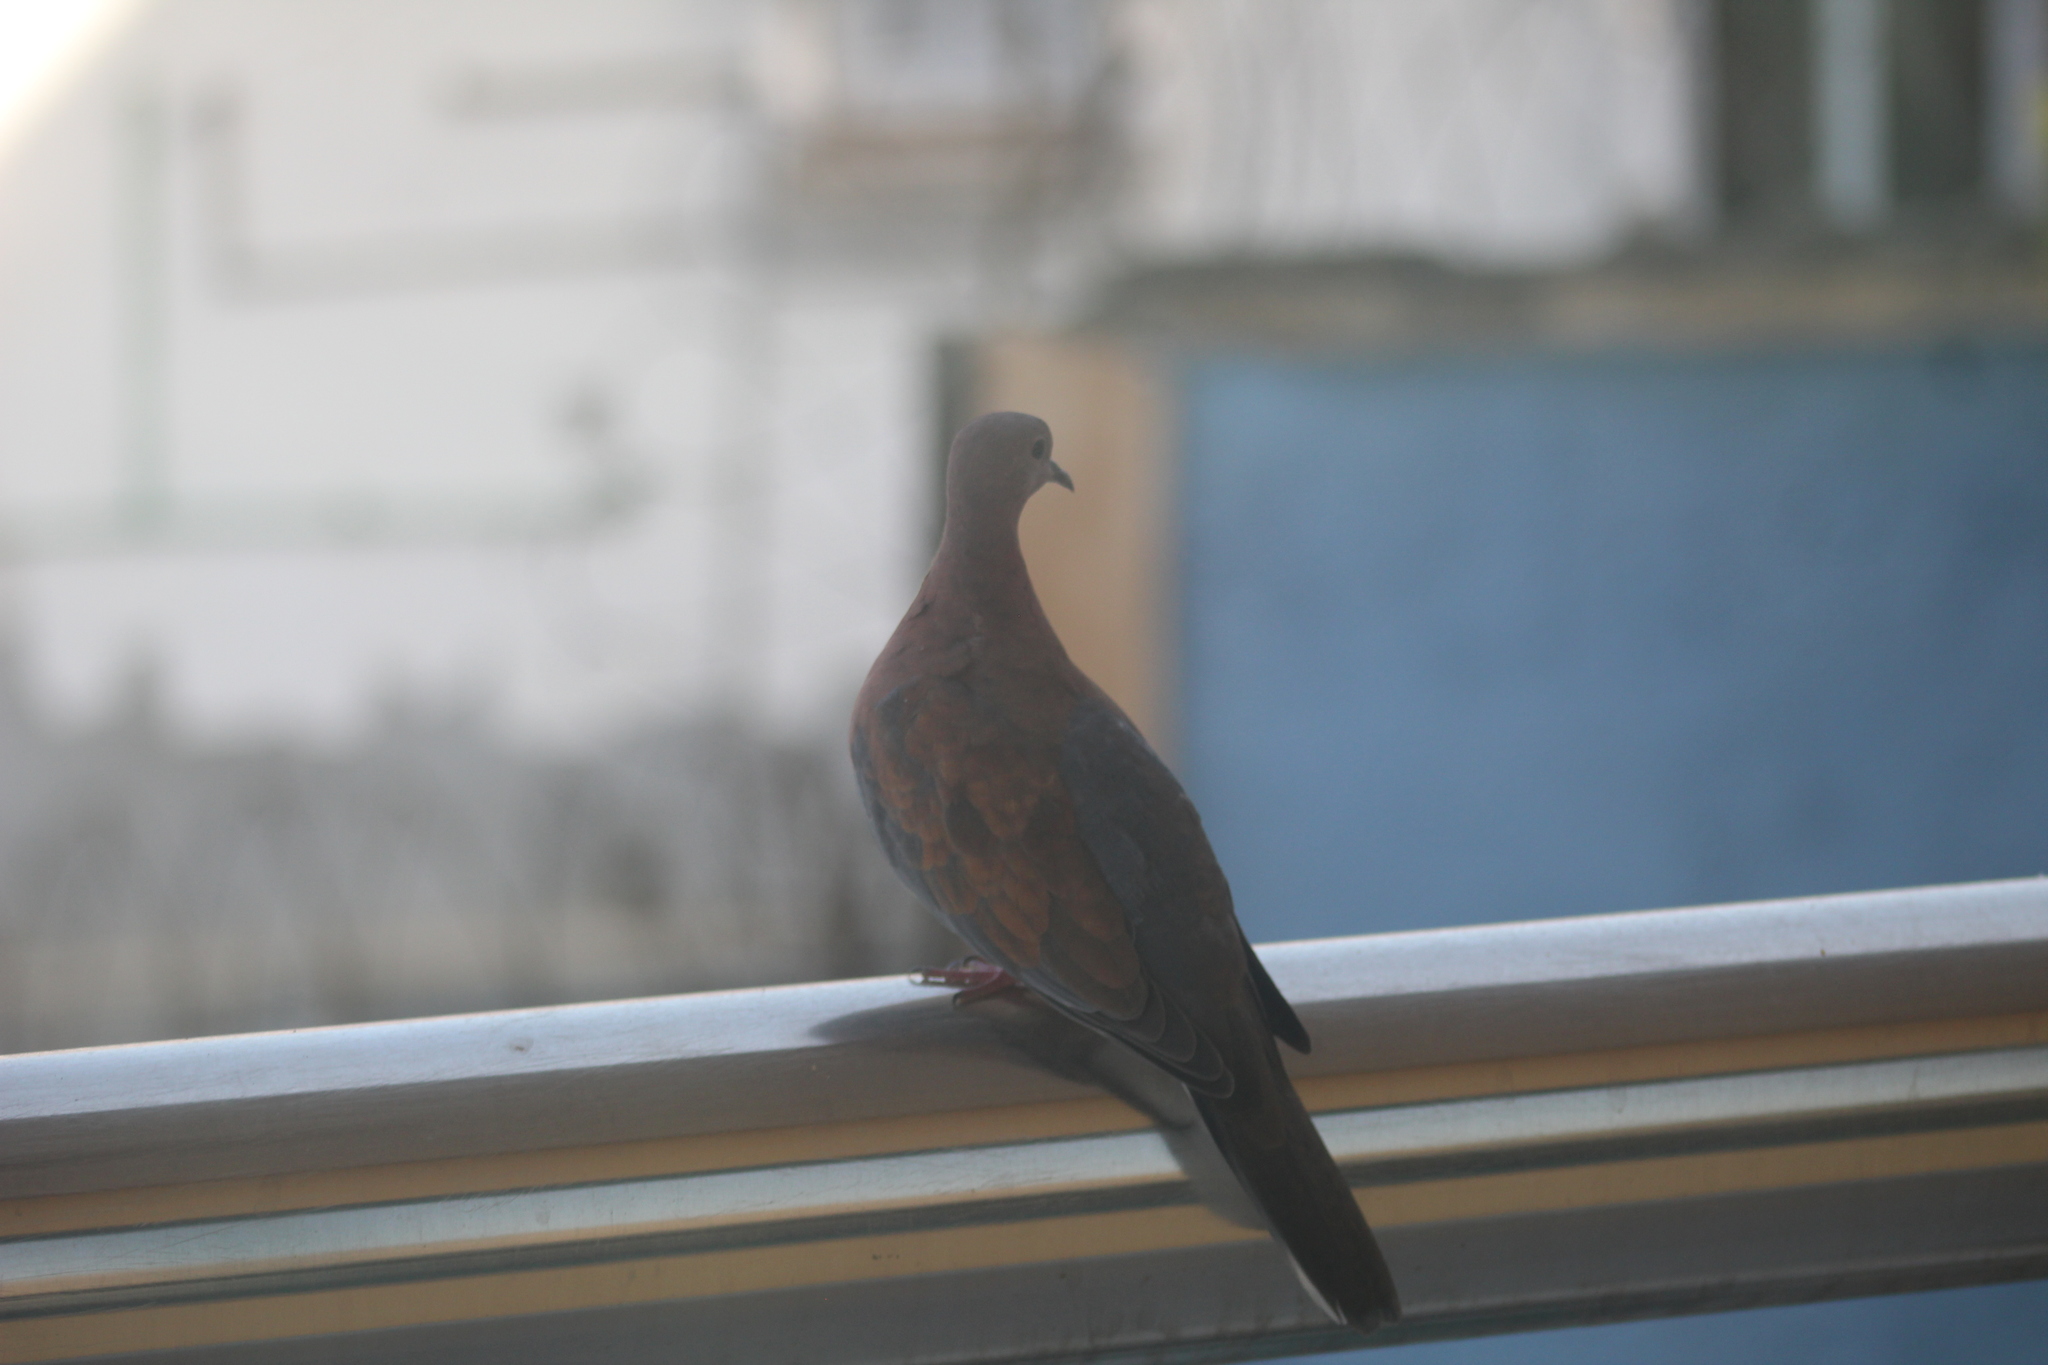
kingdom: Animalia
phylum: Chordata
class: Aves
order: Columbiformes
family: Columbidae
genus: Spilopelia
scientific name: Spilopelia senegalensis
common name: Laughing dove
